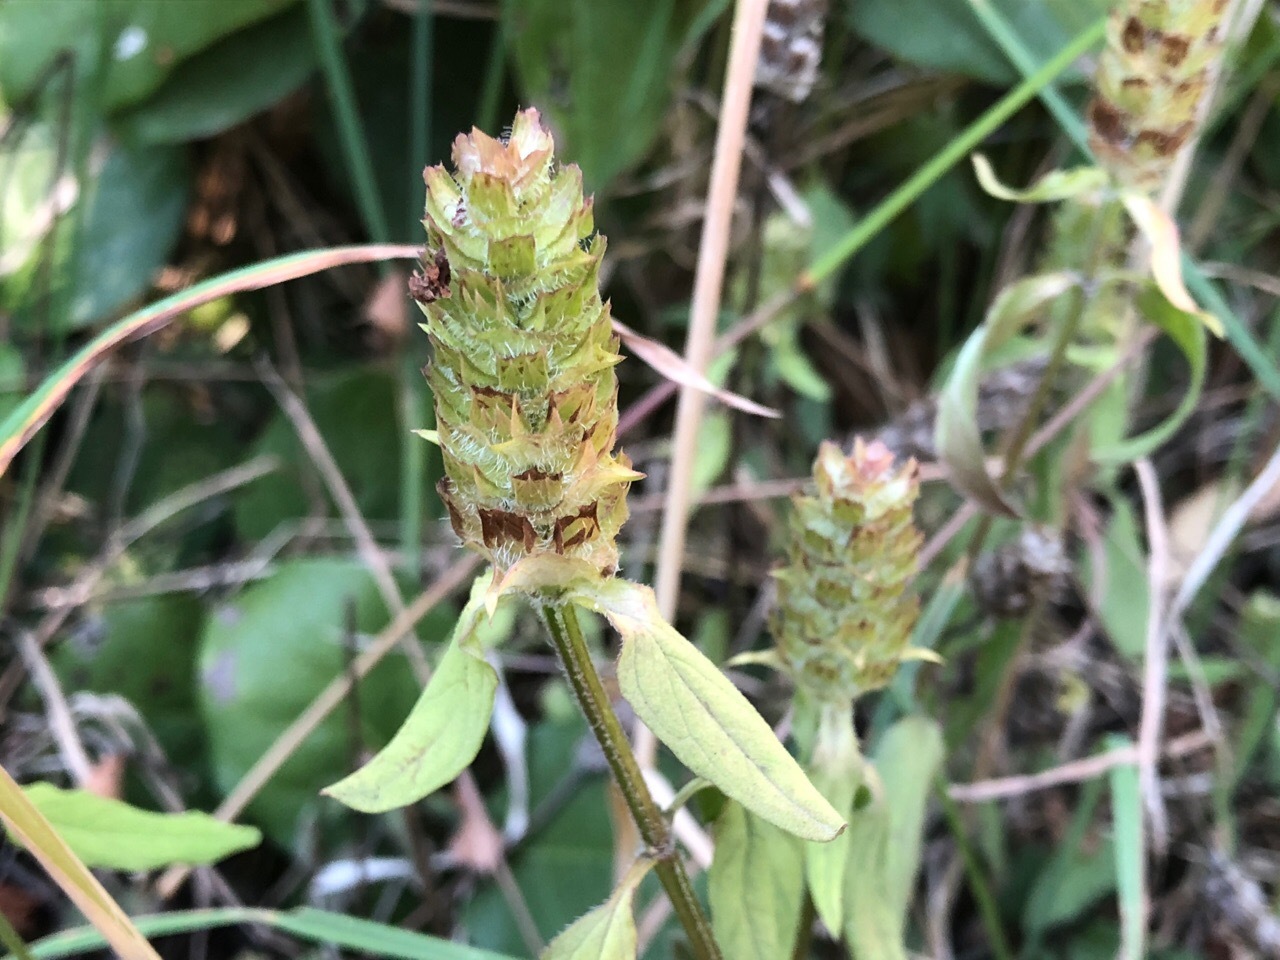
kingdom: Plantae
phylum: Tracheophyta
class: Magnoliopsida
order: Lamiales
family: Lamiaceae
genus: Prunella
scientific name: Prunella vulgaris
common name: Heal-all
